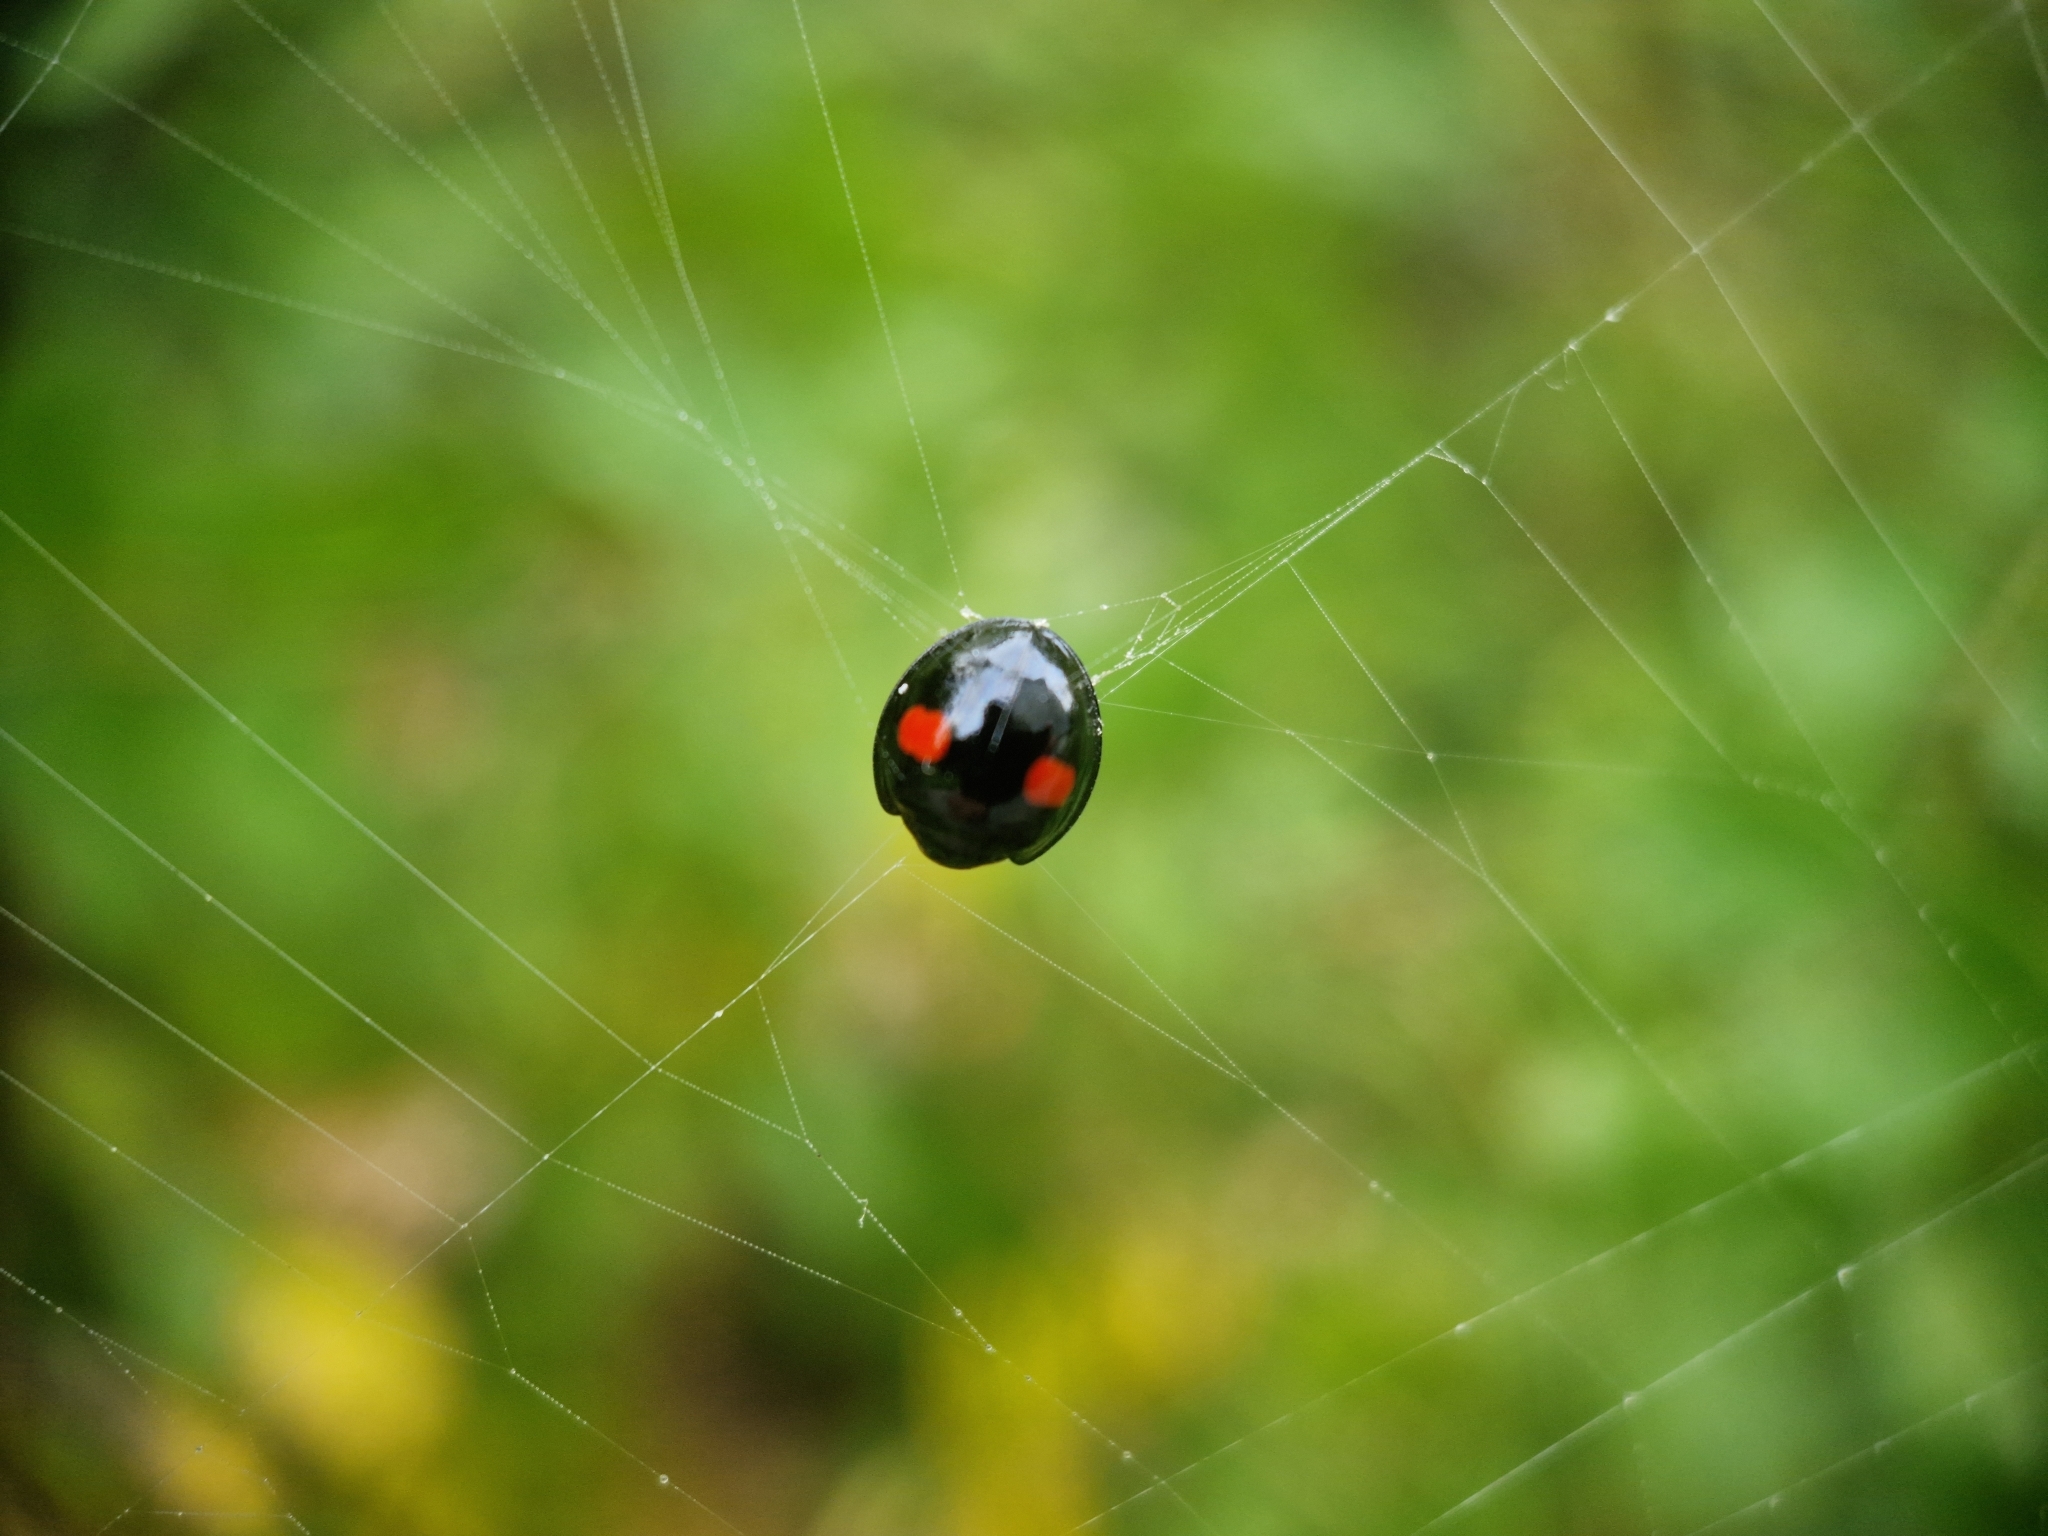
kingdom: Animalia
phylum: Arthropoda
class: Insecta
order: Coleoptera
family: Coccinellidae
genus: Chilocorus
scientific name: Chilocorus renipustulatus
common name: Kidney-spot ladybird
